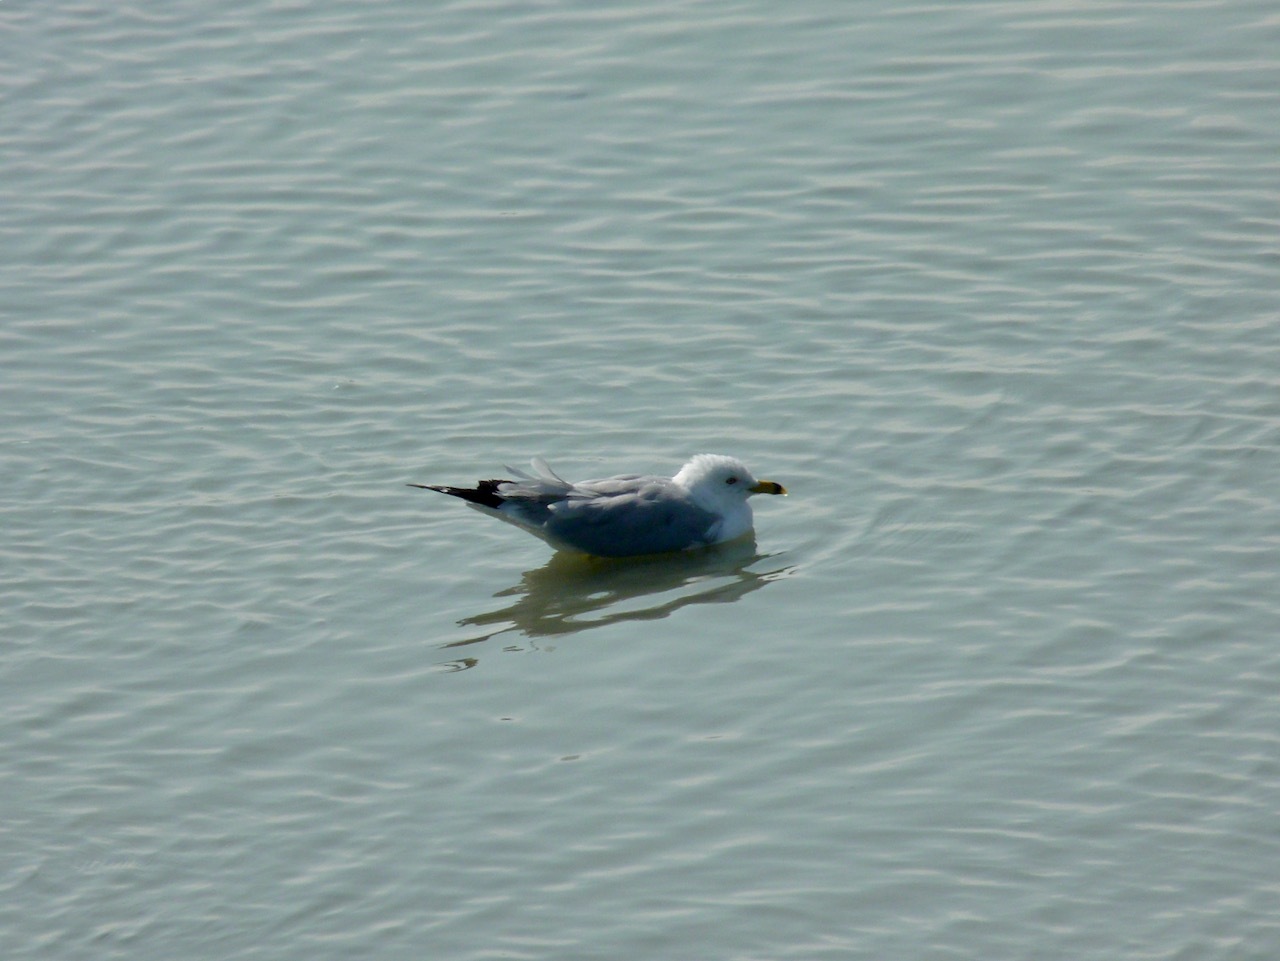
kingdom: Animalia
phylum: Chordata
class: Aves
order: Charadriiformes
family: Laridae
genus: Larus
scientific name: Larus delawarensis
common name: Ring-billed gull
